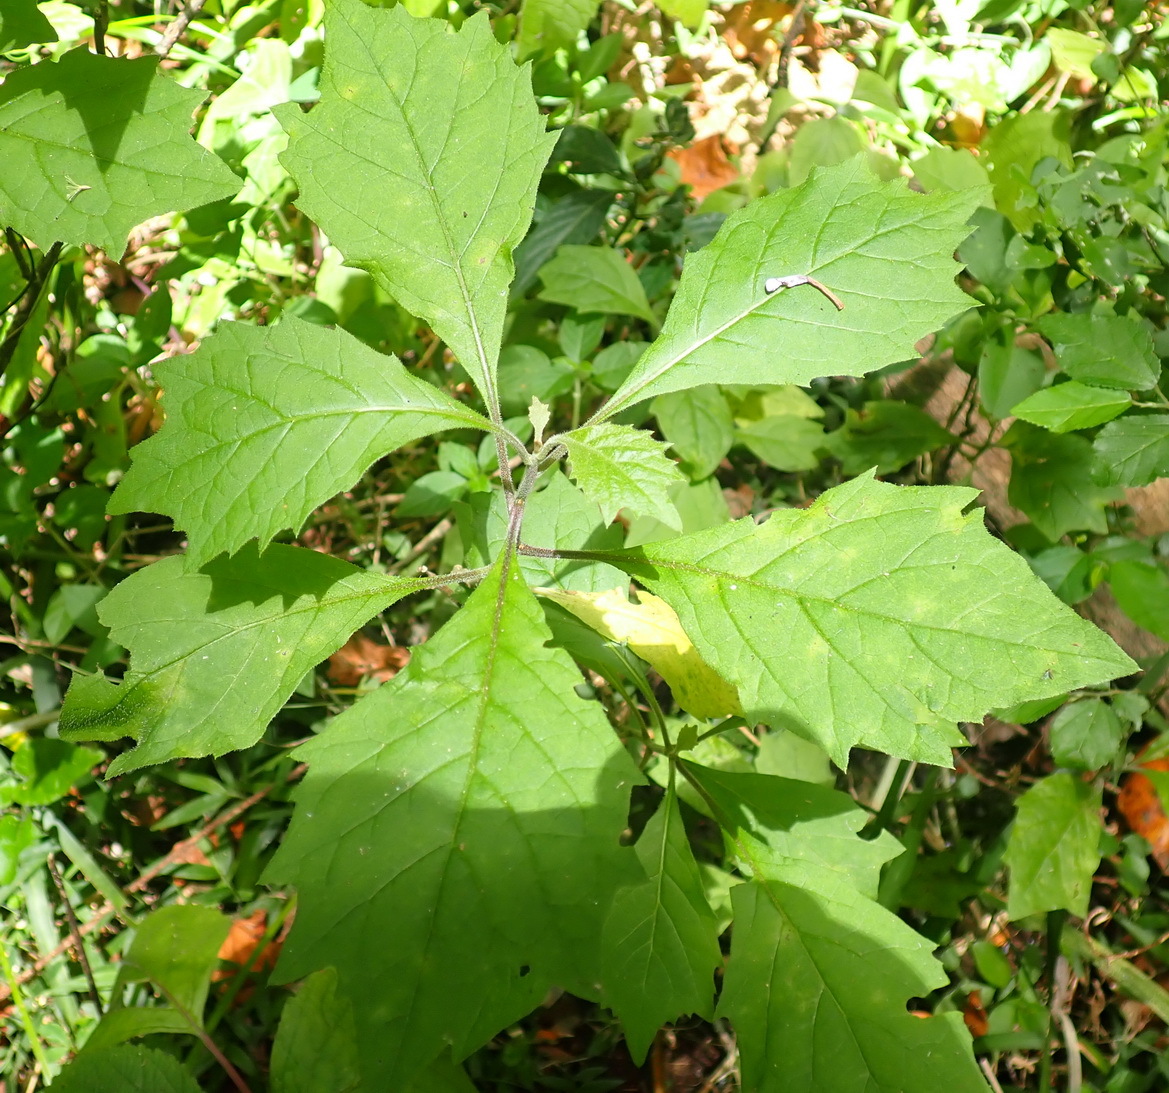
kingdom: Plantae
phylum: Tracheophyta
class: Magnoliopsida
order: Asterales
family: Asteraceae
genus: Gymnanthemum
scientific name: Gymnanthemum capense
